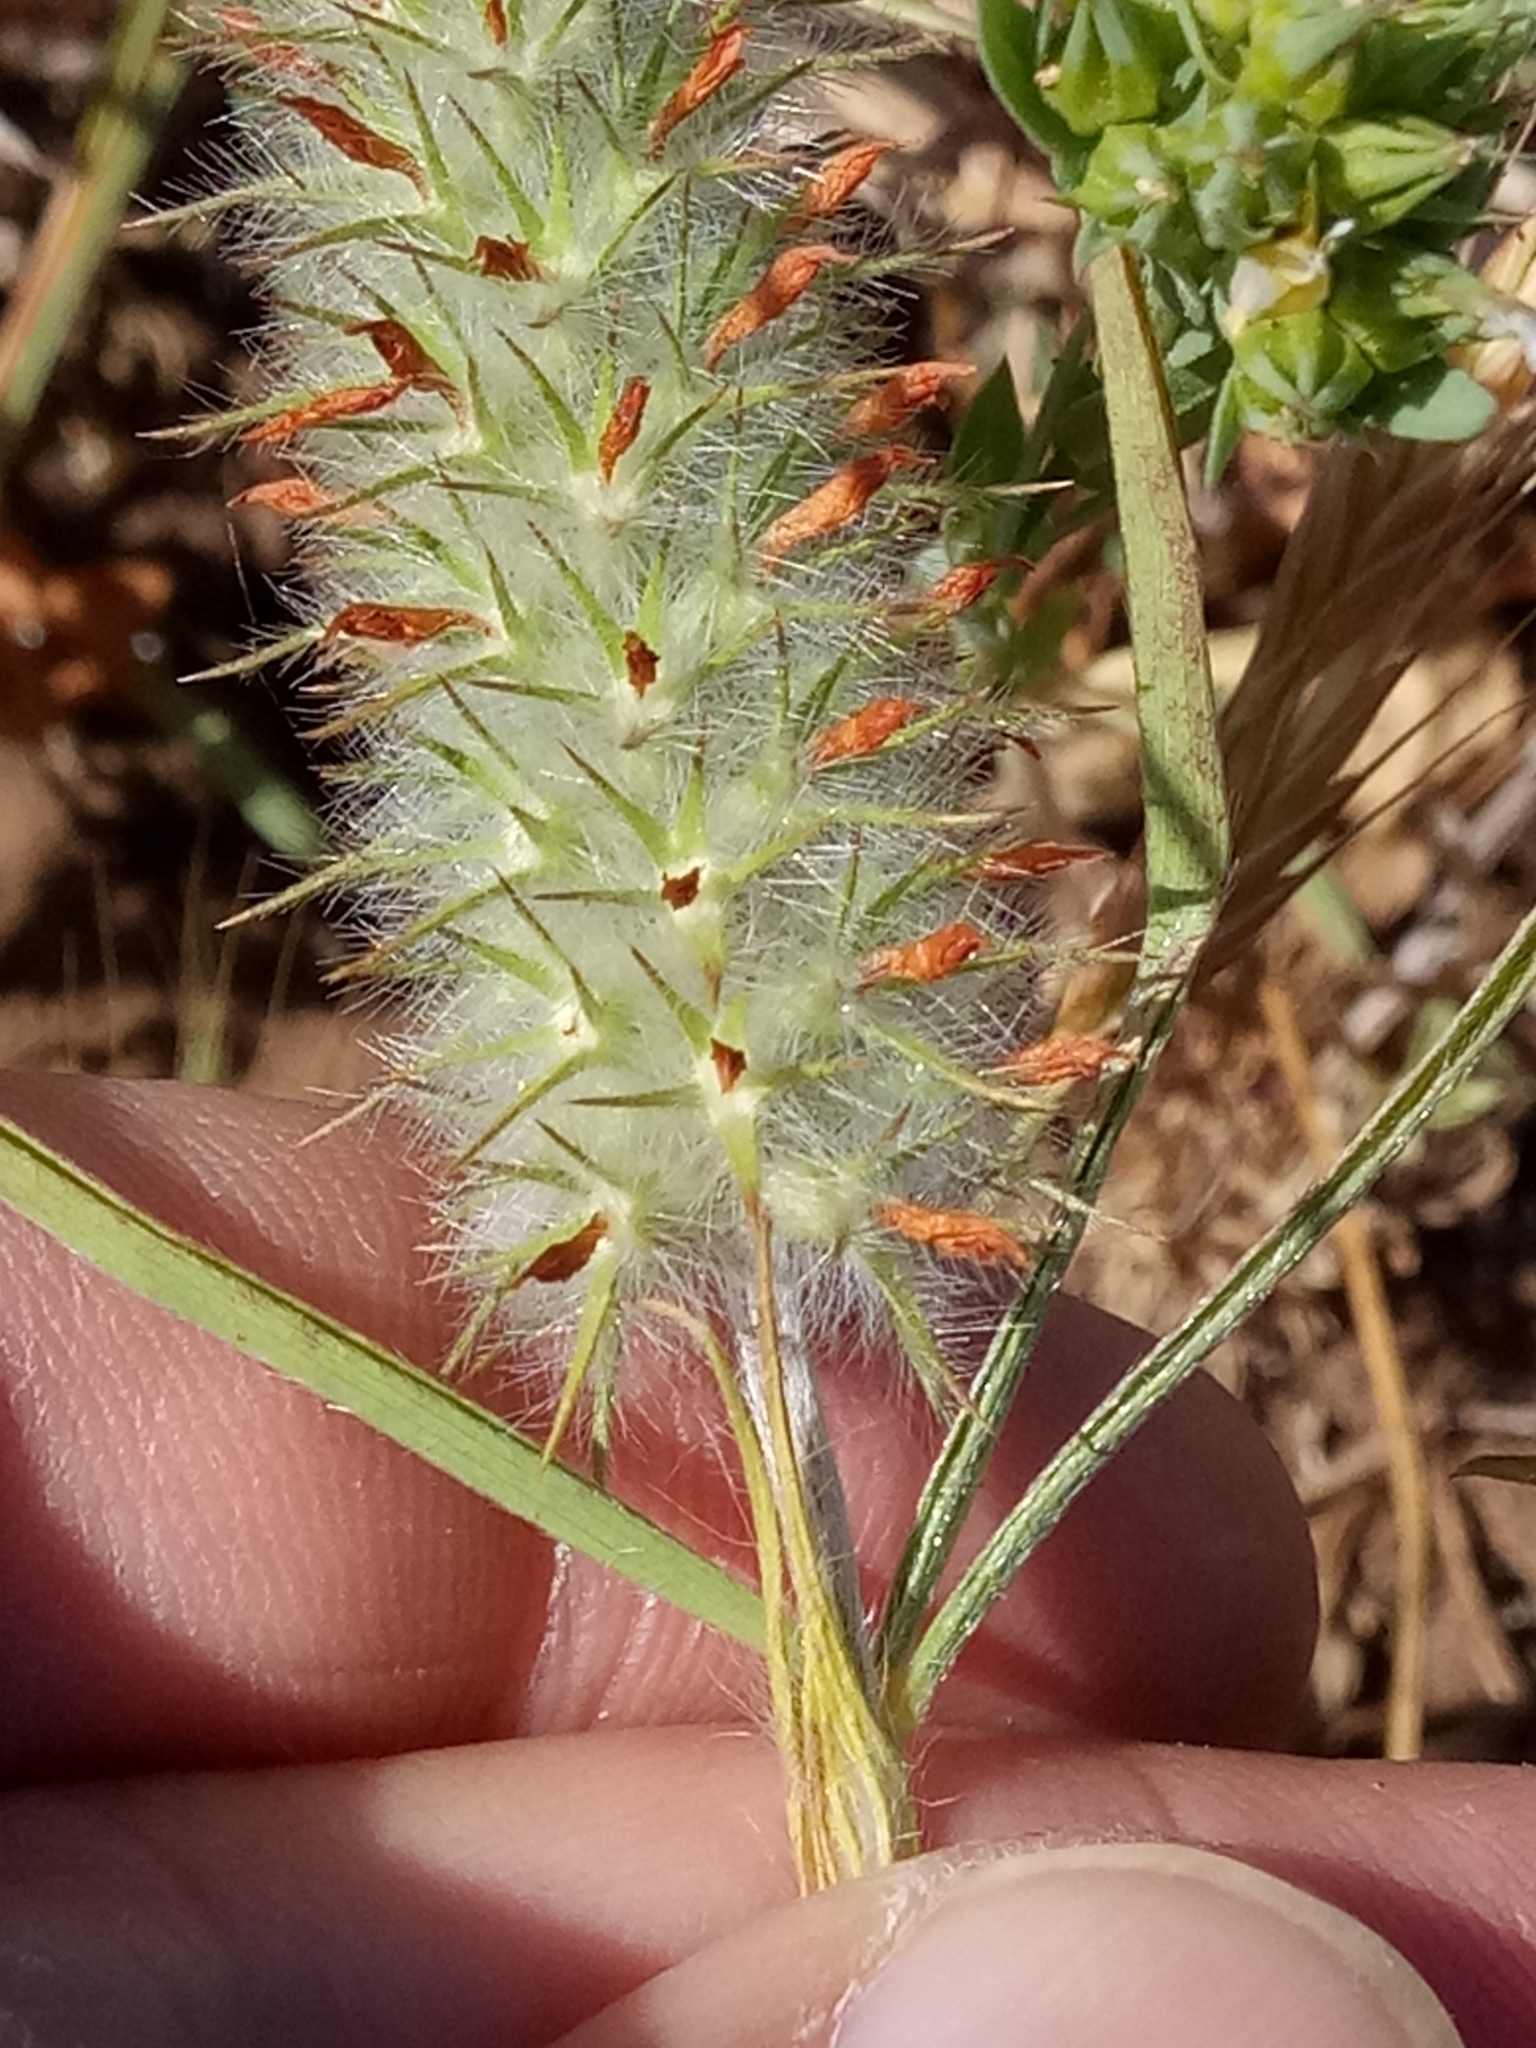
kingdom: Plantae
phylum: Tracheophyta
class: Magnoliopsida
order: Fabales
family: Fabaceae
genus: Trifolium
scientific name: Trifolium angustifolium
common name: Narrow clover
